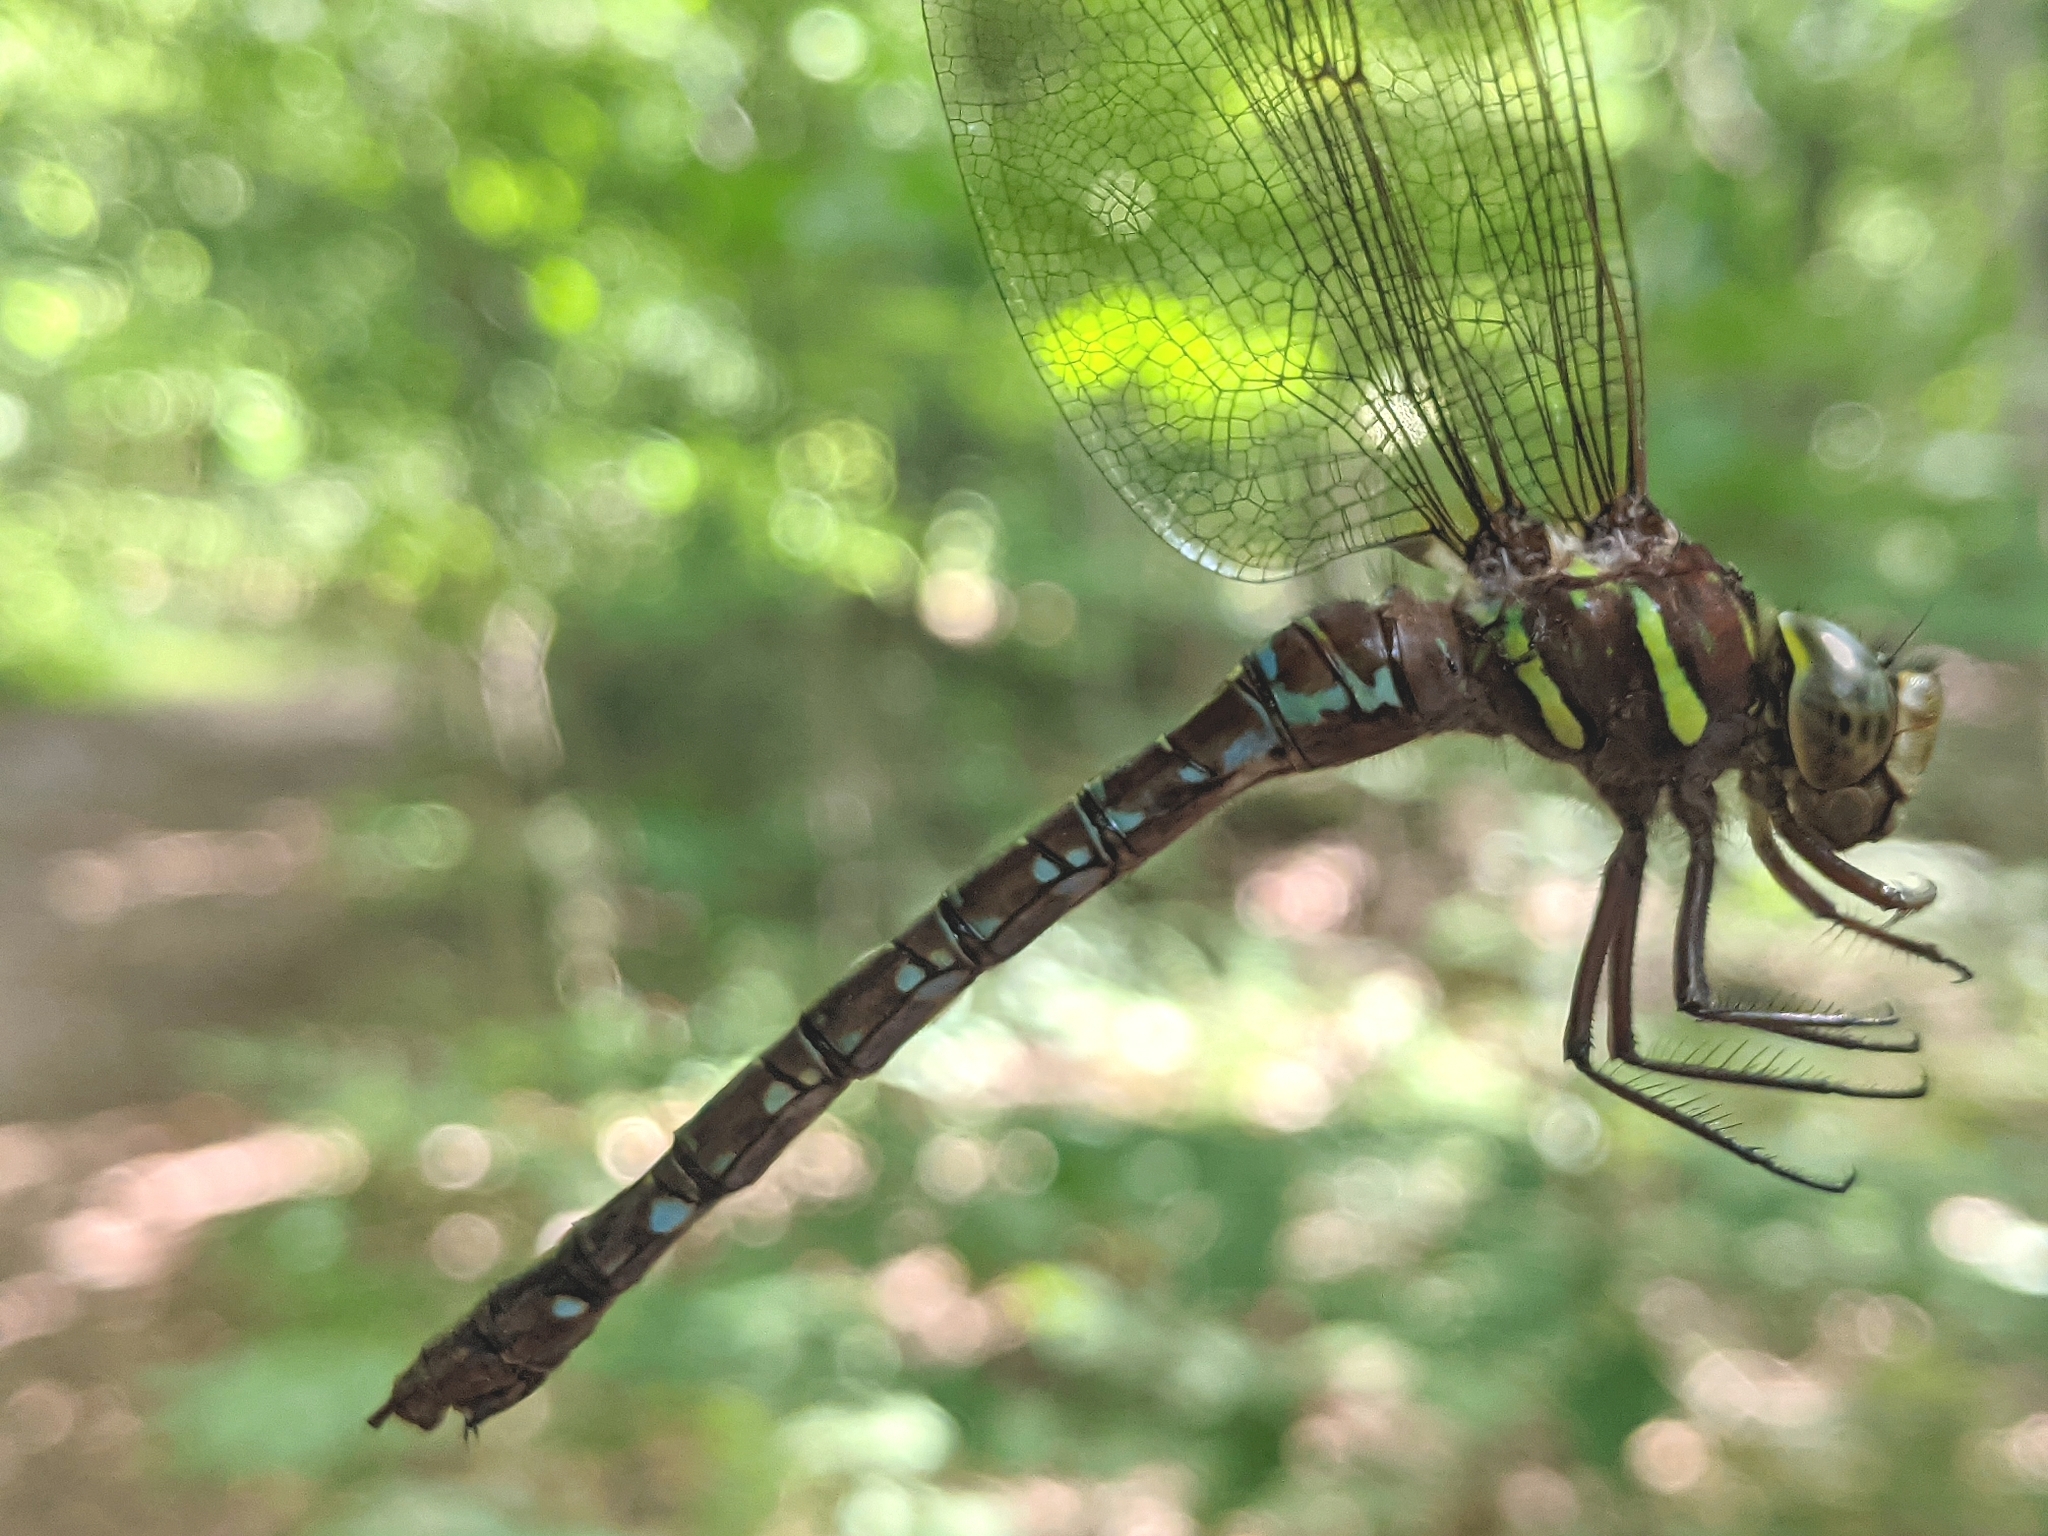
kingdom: Animalia
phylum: Arthropoda
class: Insecta
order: Odonata
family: Aeshnidae
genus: Aeshna
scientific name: Aeshna umbrosa
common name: Shadow darner
